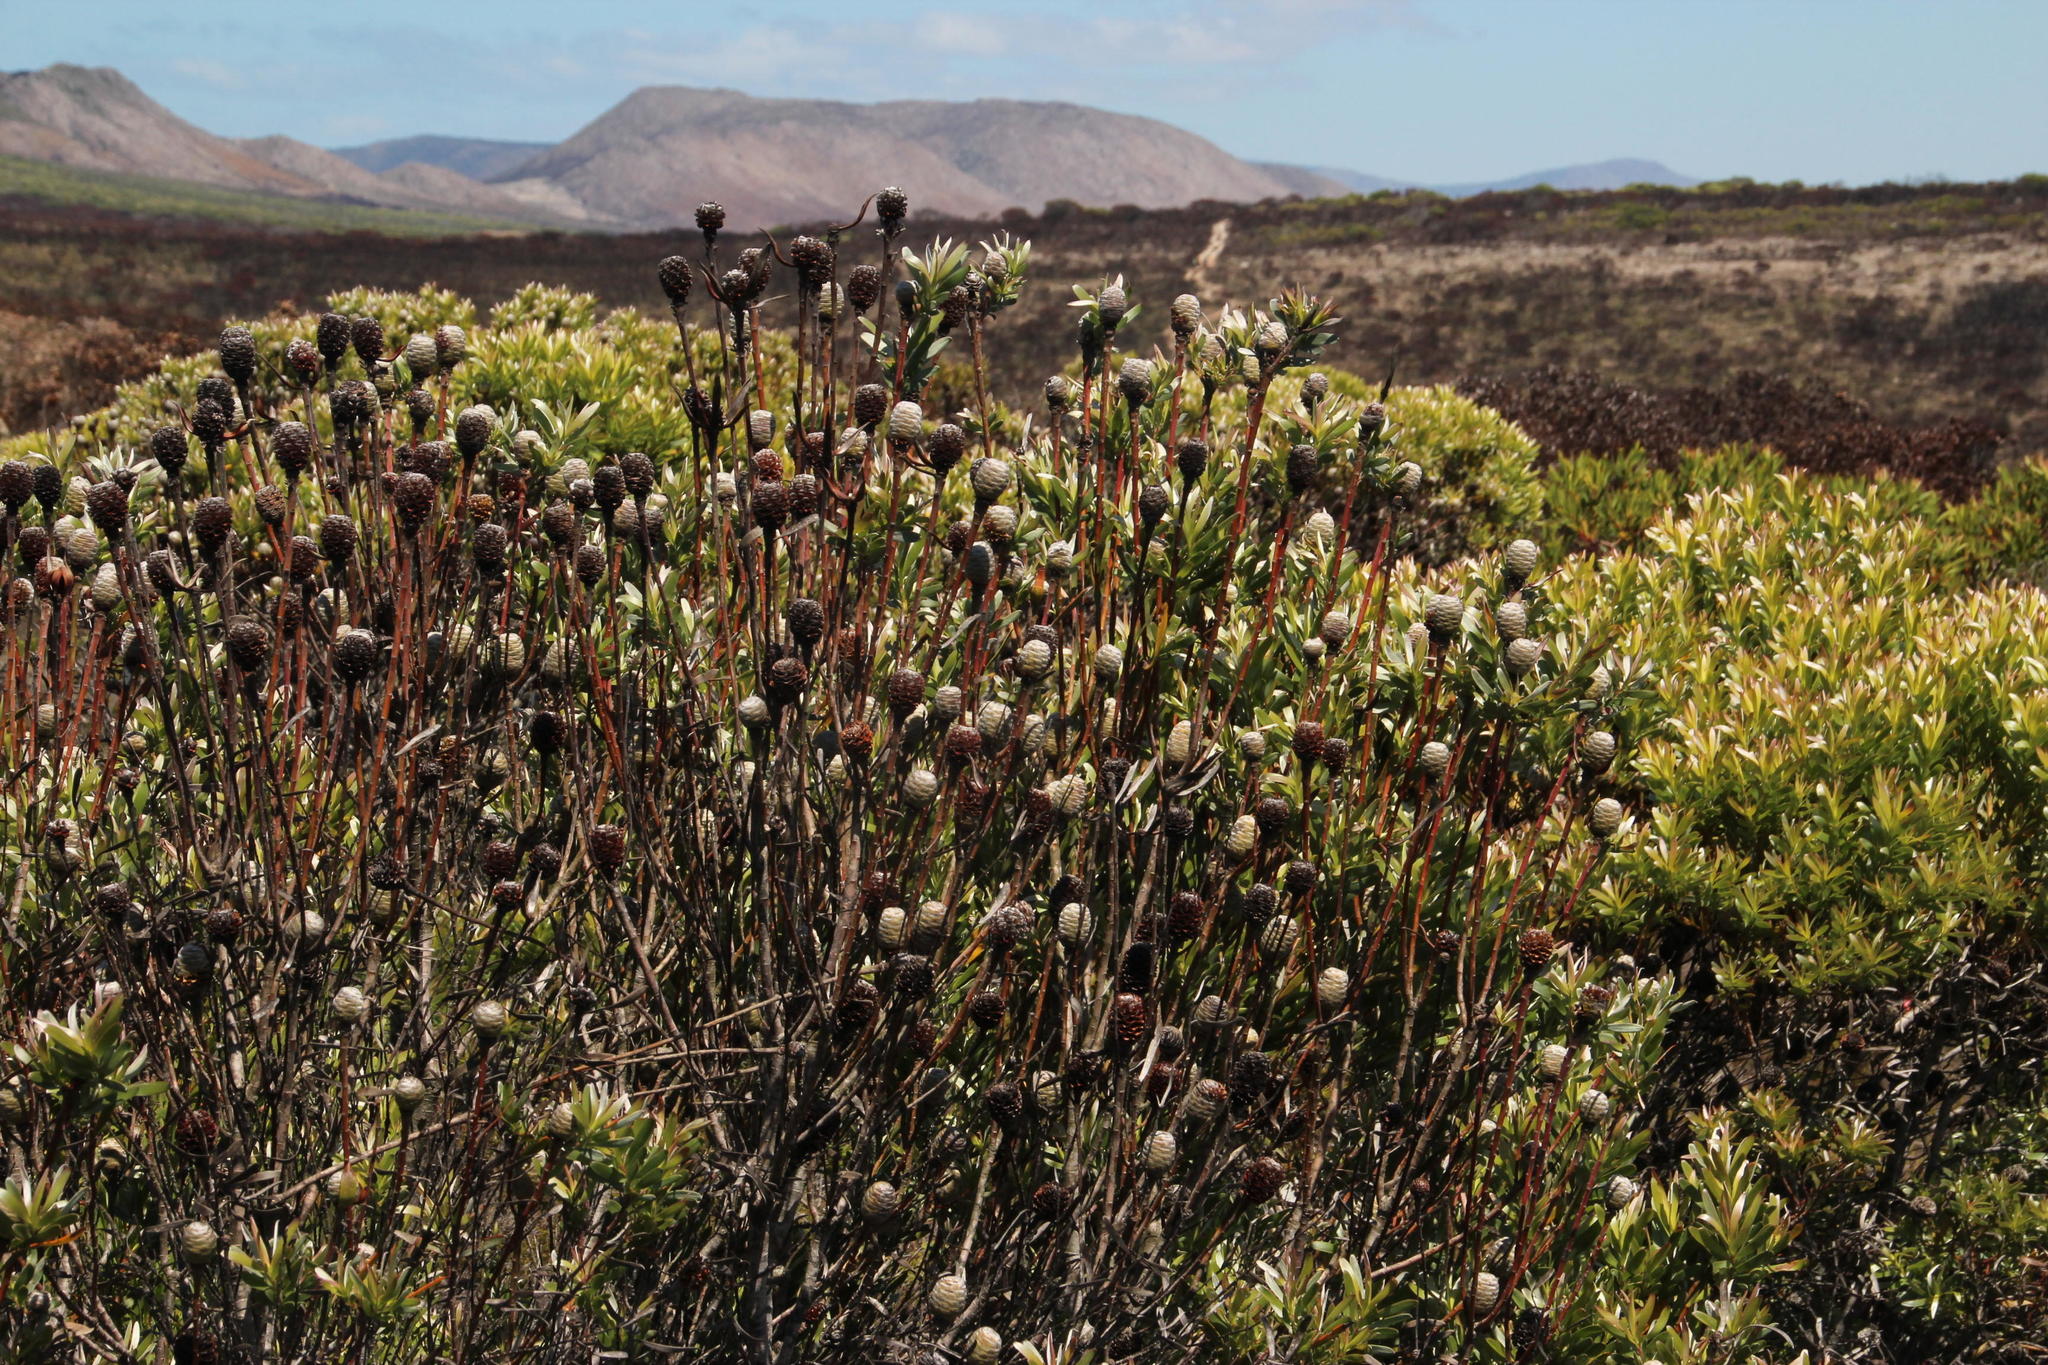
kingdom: Plantae
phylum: Tracheophyta
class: Magnoliopsida
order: Proteales
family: Proteaceae
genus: Leucadendron
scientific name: Leucadendron meridianum
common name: Limestone conebush
